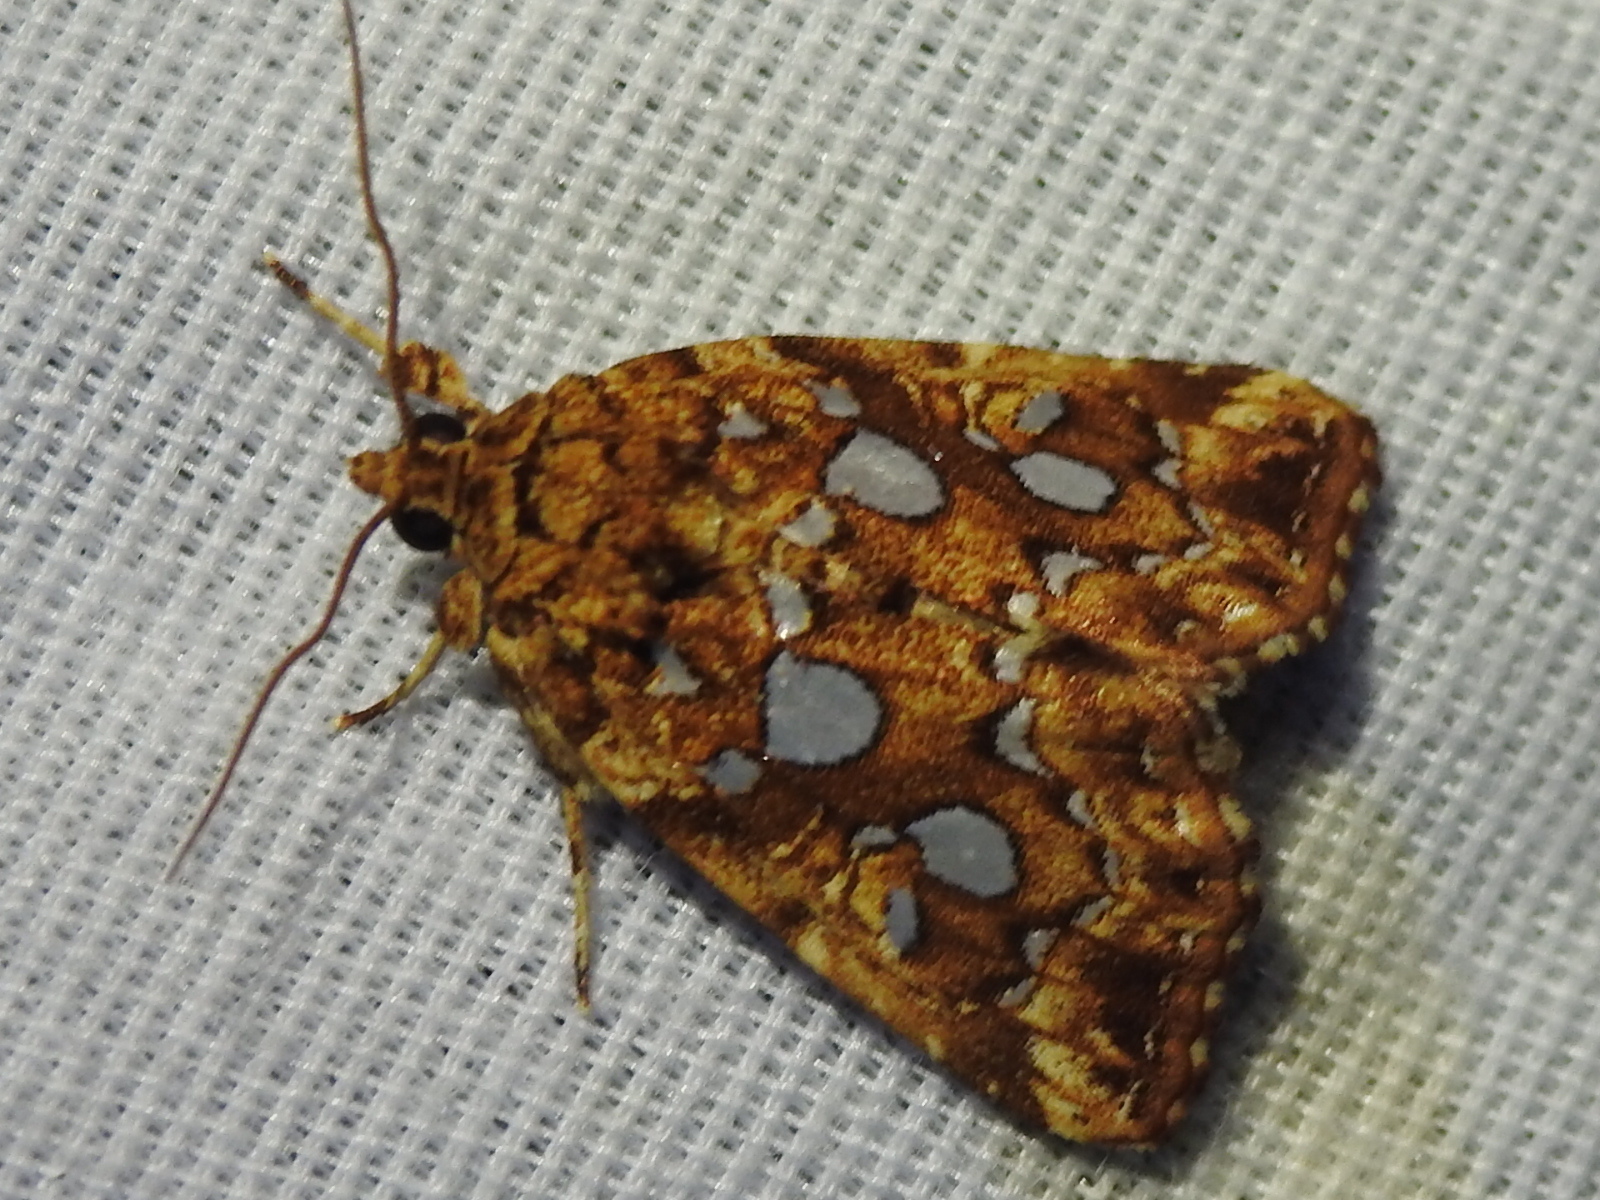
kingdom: Animalia
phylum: Arthropoda
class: Insecta
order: Lepidoptera
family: Noctuidae
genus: Callopistria
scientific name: Callopistria cordata
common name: Silver-spotted fern moth
